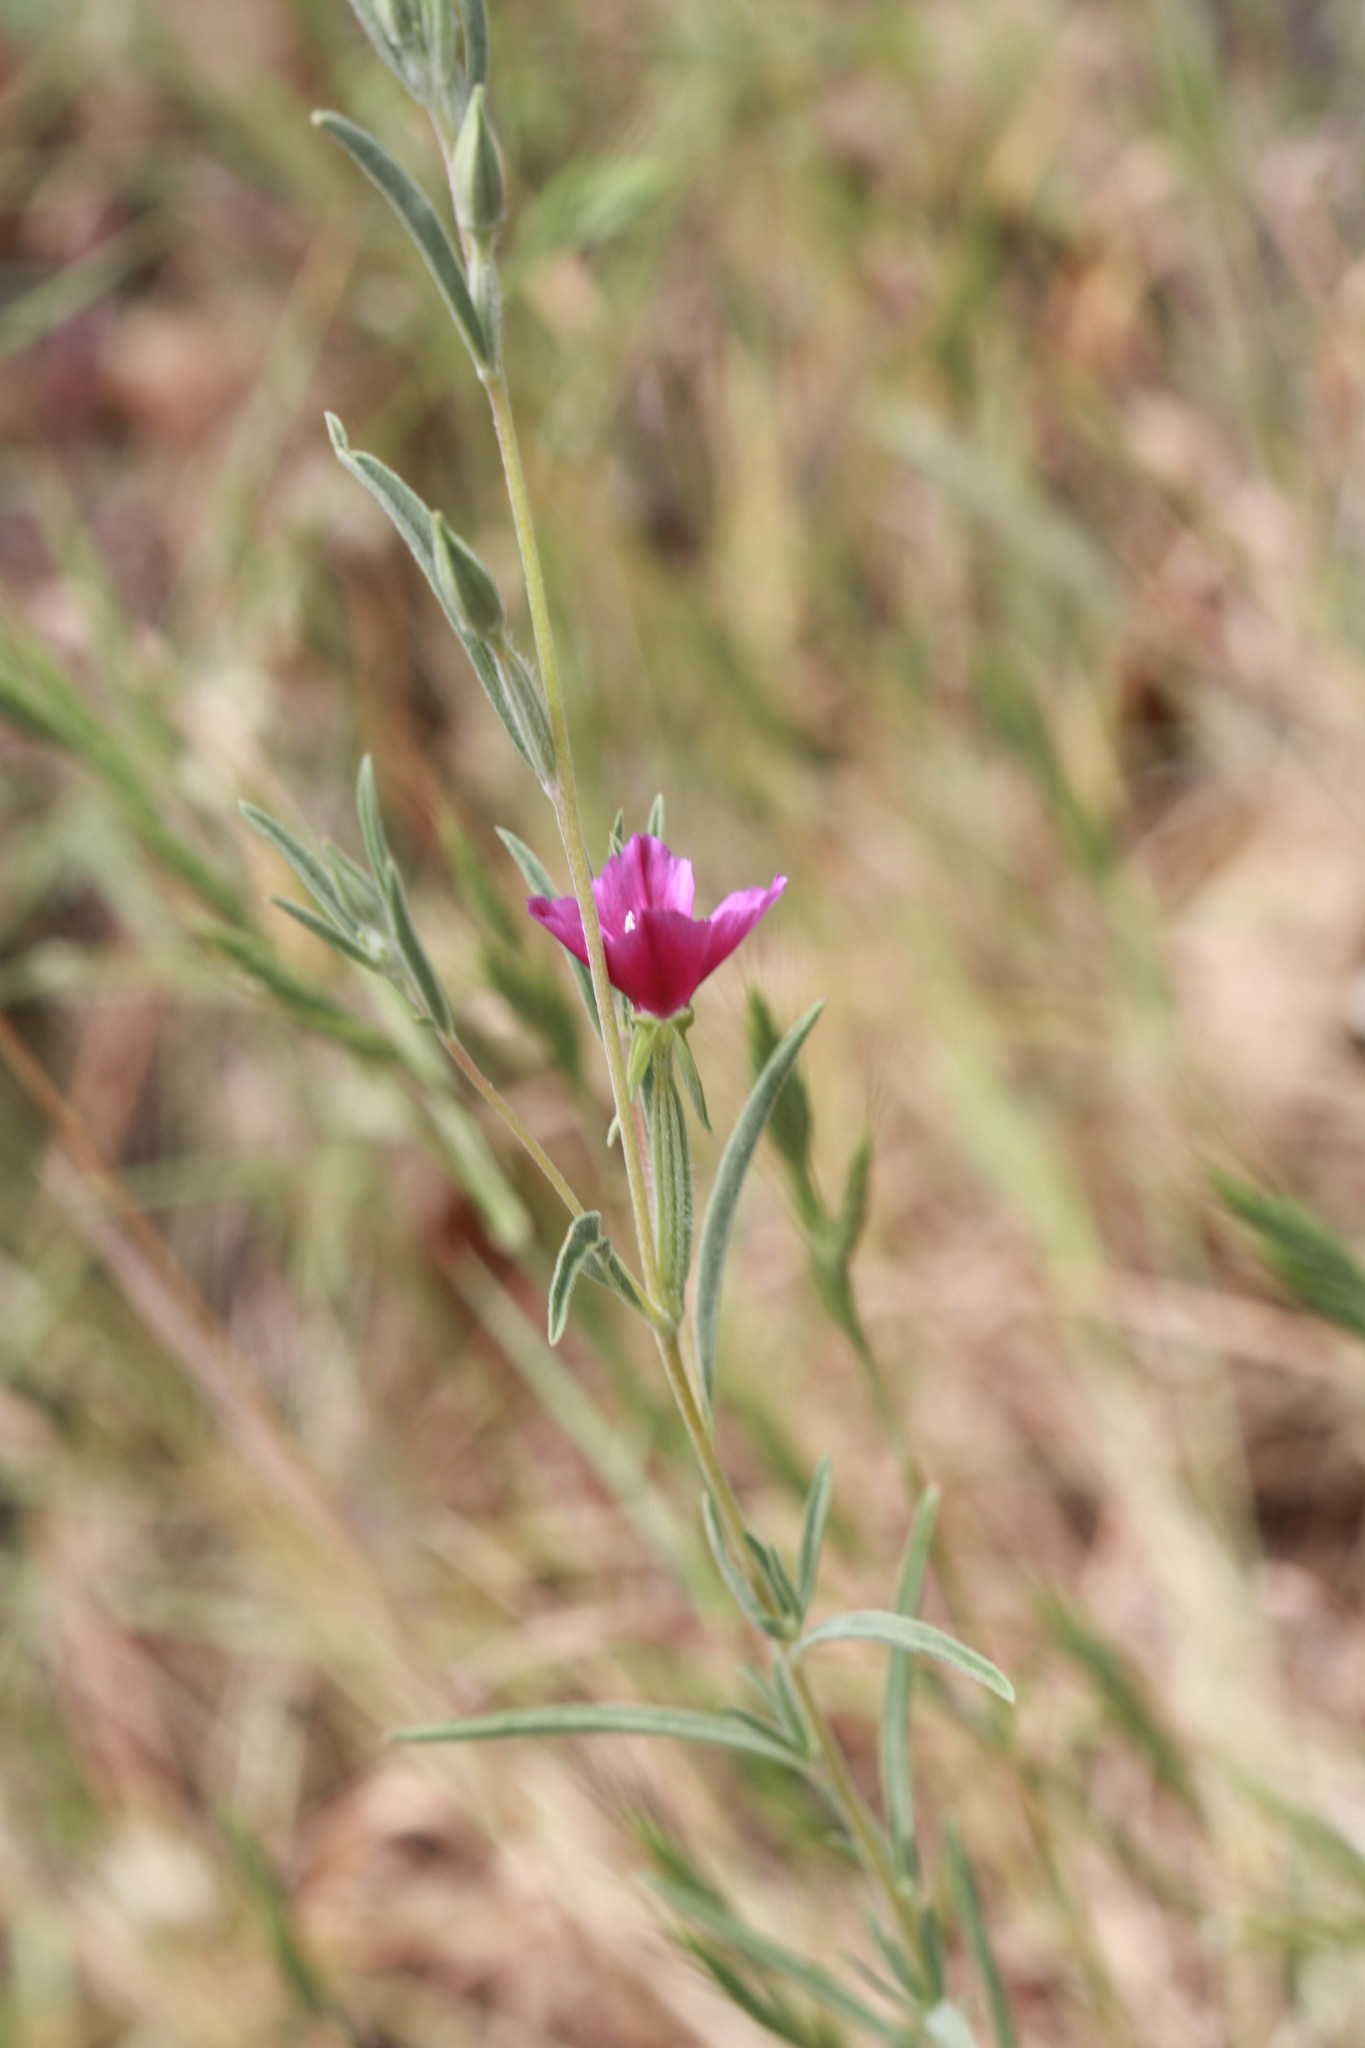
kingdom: Plantae
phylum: Tracheophyta
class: Magnoliopsida
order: Myrtales
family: Onagraceae
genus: Clarkia
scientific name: Clarkia purpurea
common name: Purple clarkia
